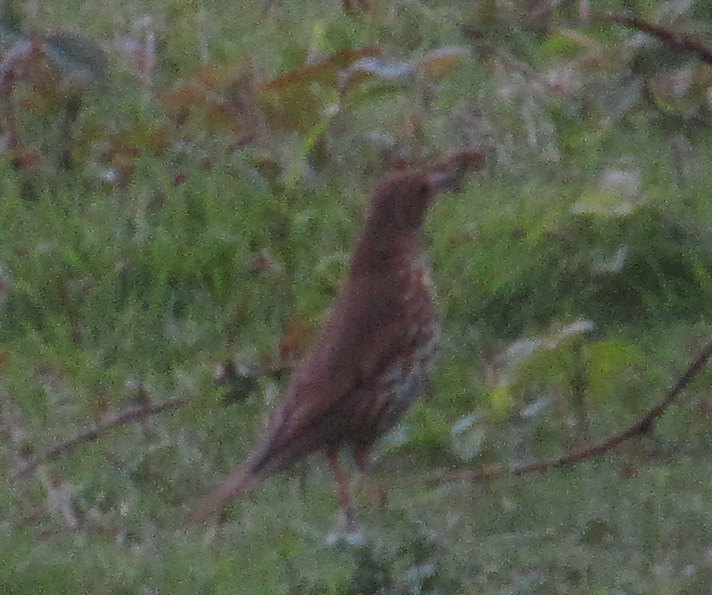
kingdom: Animalia
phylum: Chordata
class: Aves
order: Passeriformes
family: Turdidae
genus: Turdus
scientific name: Turdus philomelos
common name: Song thrush
